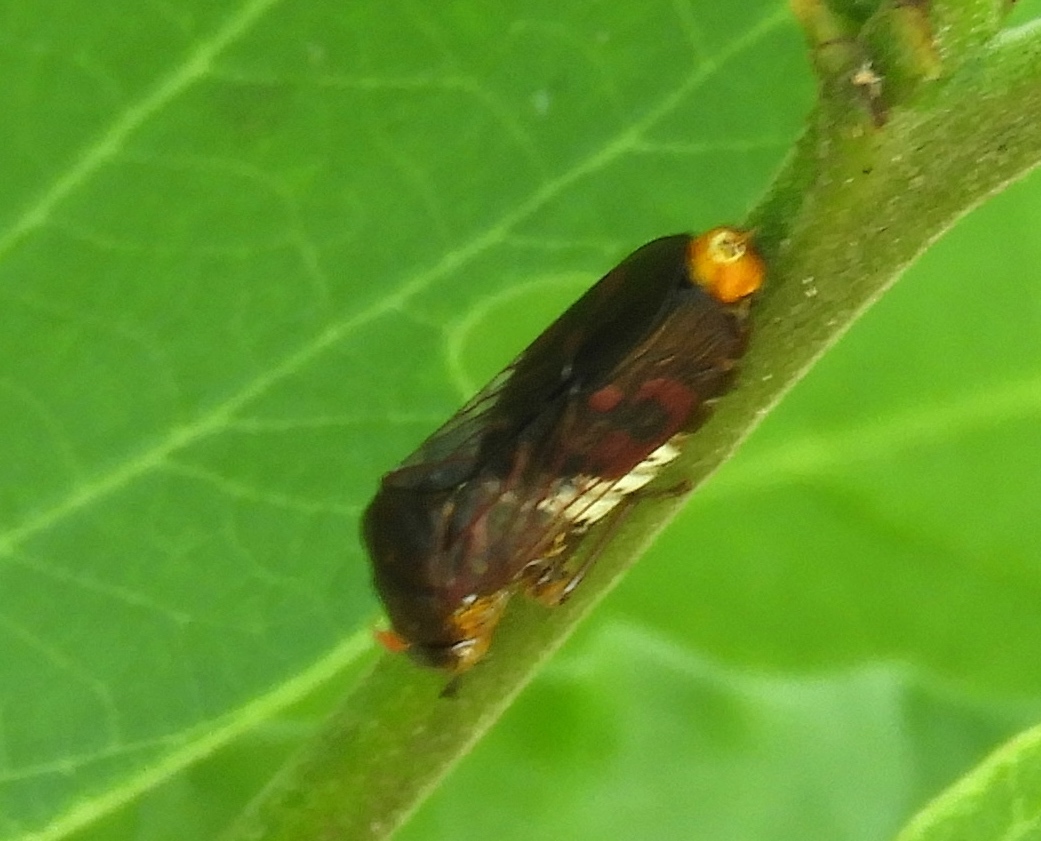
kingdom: Animalia
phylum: Arthropoda
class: Insecta
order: Hemiptera
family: Cicadellidae
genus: Homalodisca
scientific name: Homalodisca
